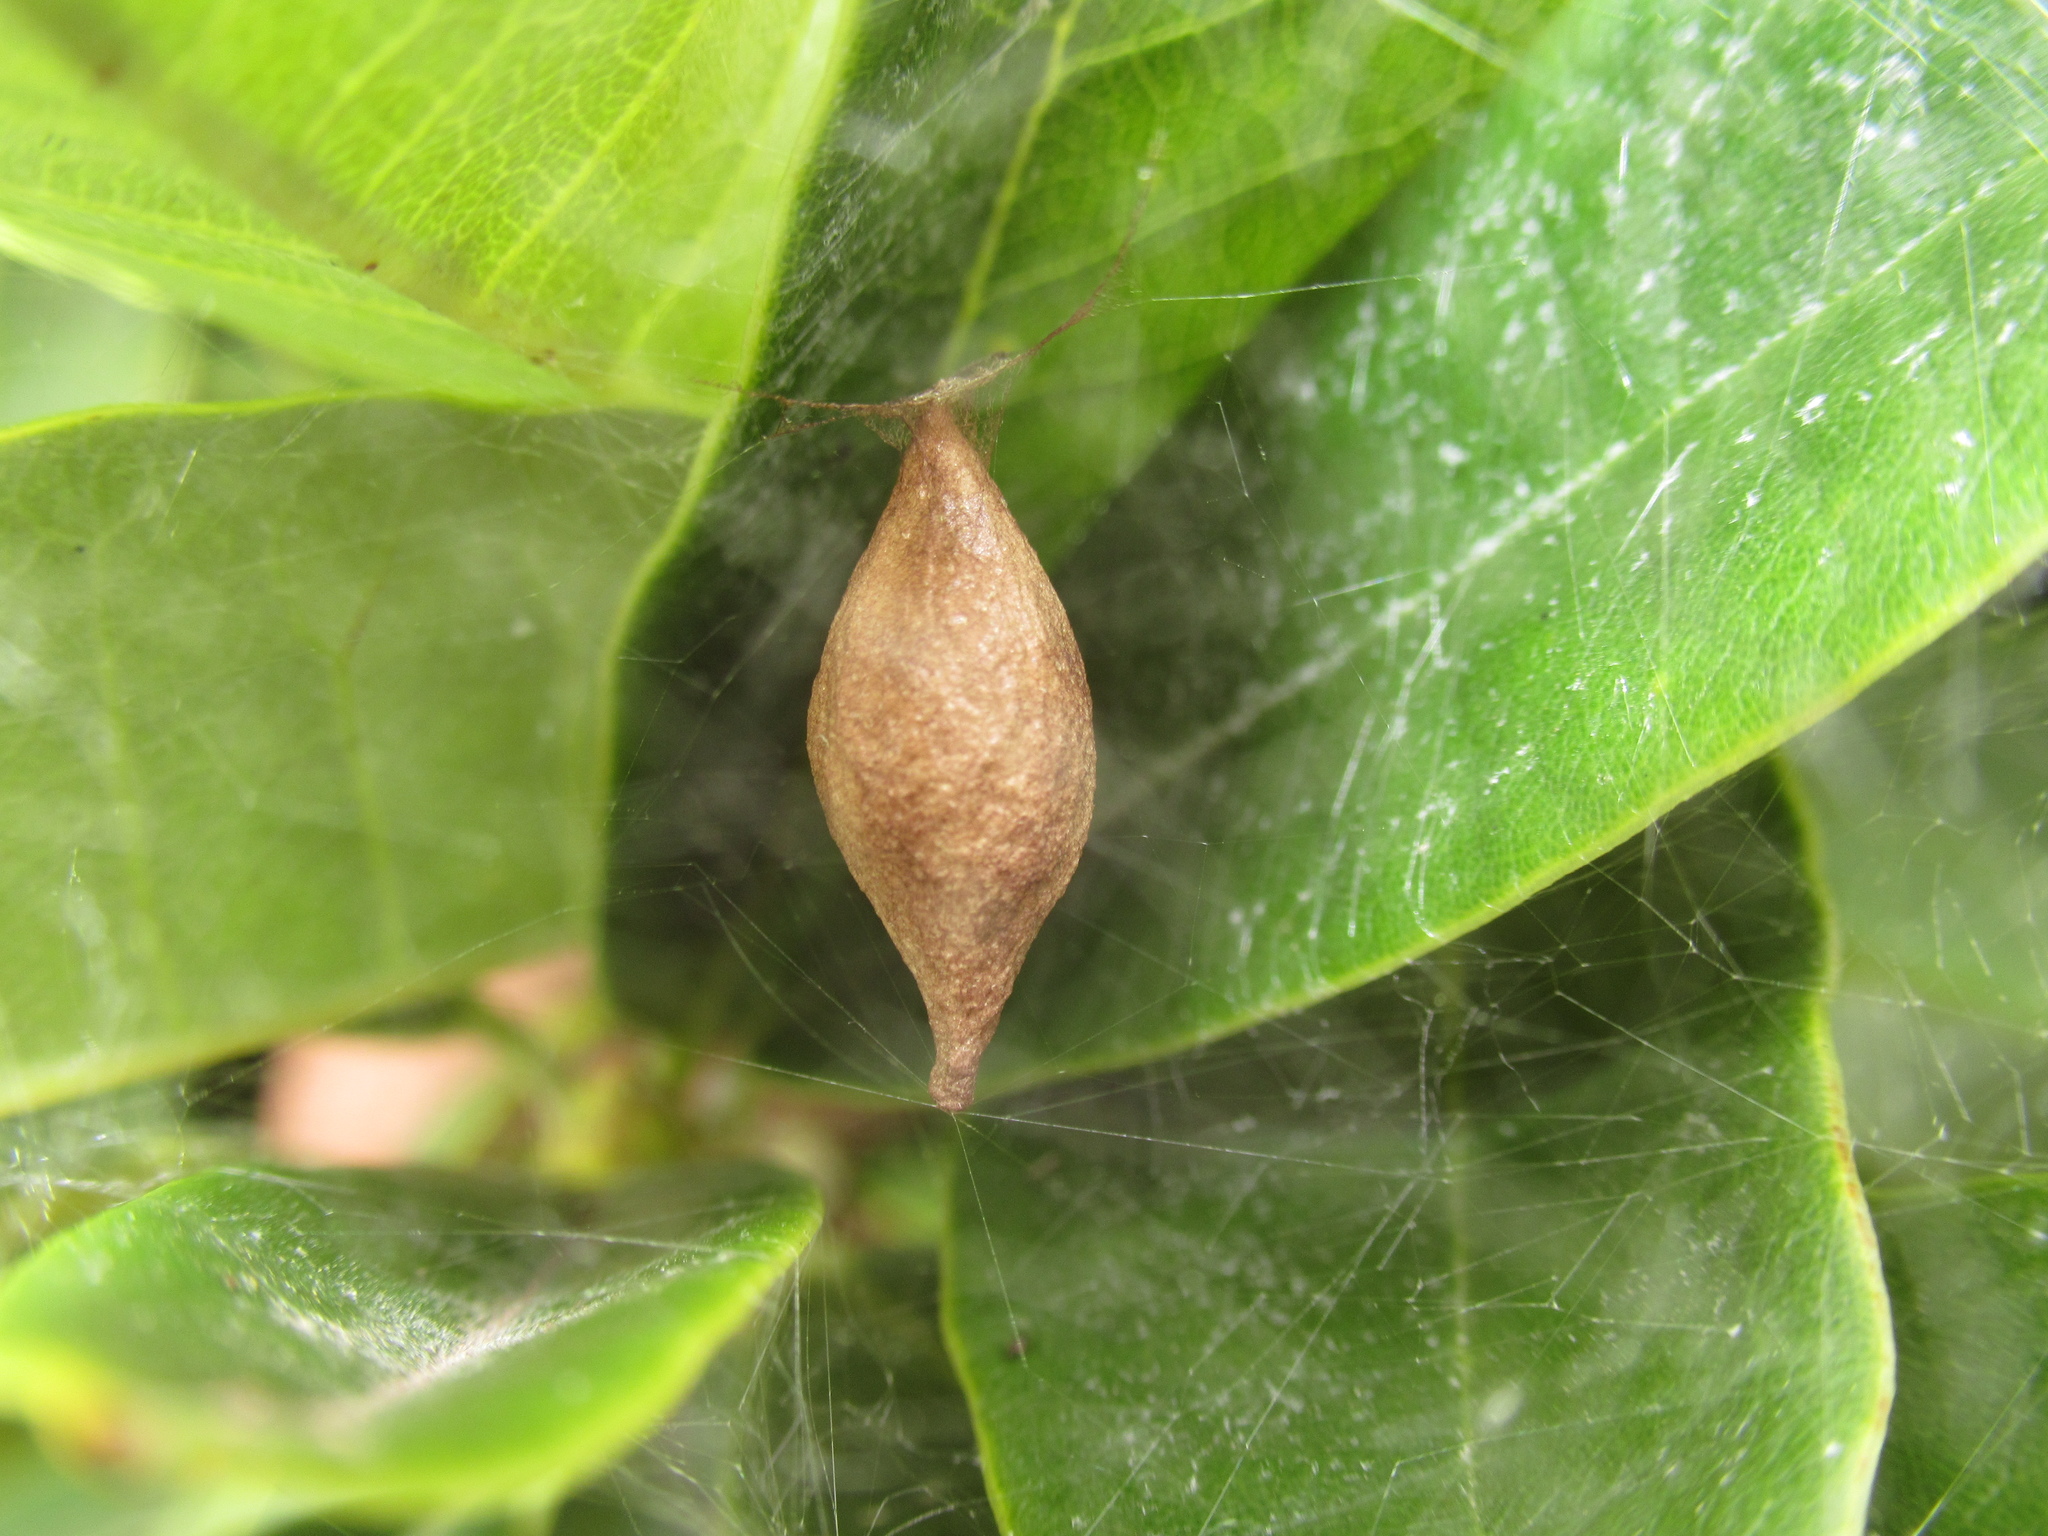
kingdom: Animalia
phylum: Arthropoda
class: Arachnida
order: Araneae
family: Araneidae
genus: Poecilopachys
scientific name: Poecilopachys australasia
